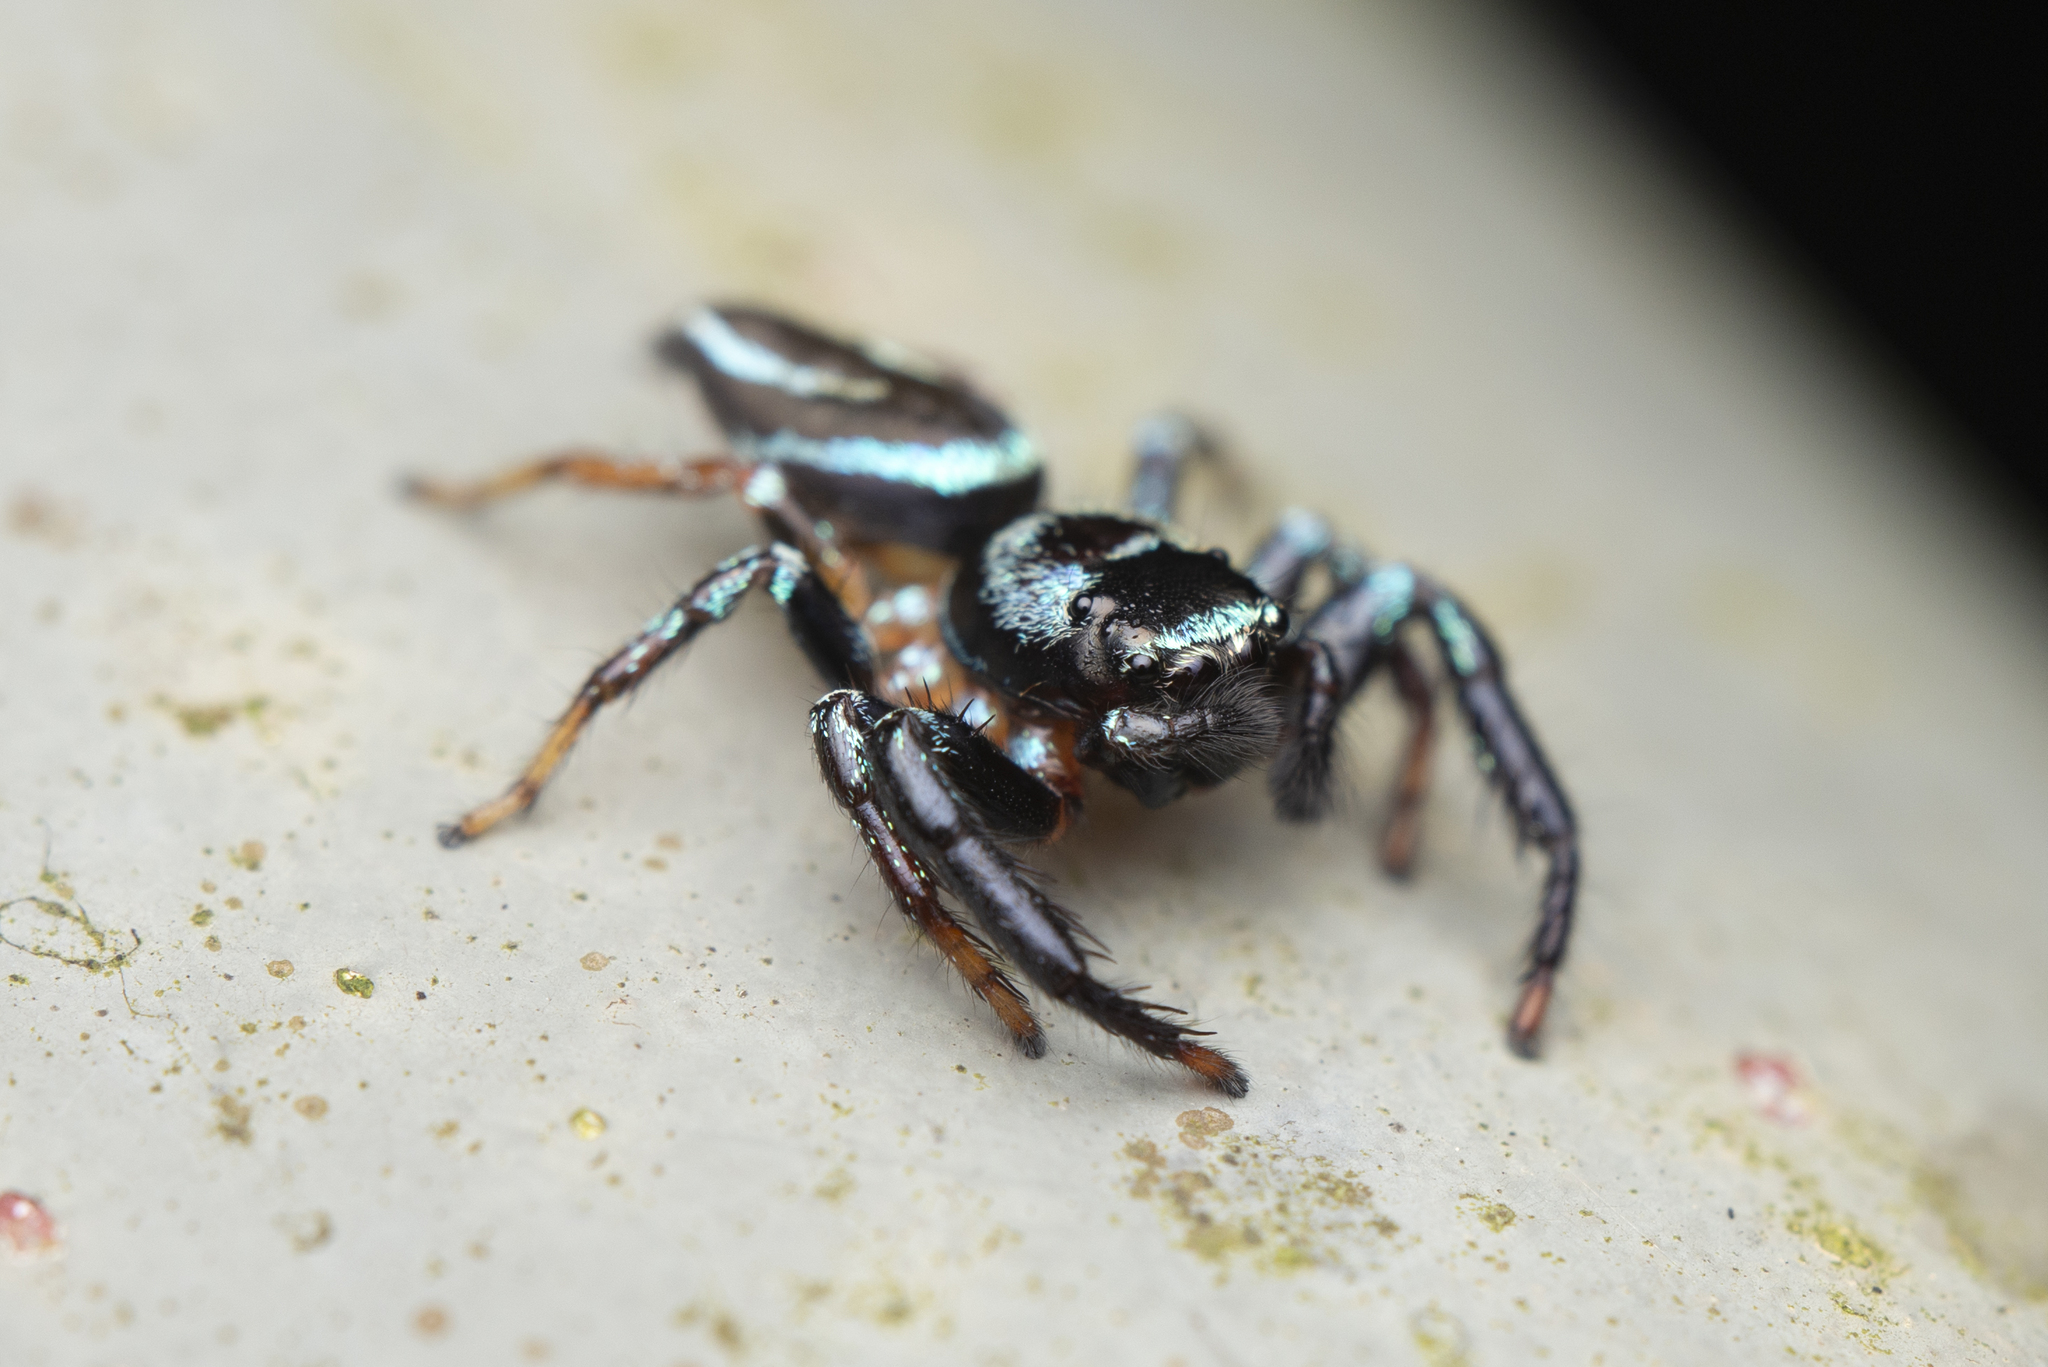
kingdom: Animalia
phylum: Arthropoda
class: Arachnida
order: Araneae
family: Salticidae
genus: Thiania
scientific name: Thiania suboppressa
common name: Jumping spider
